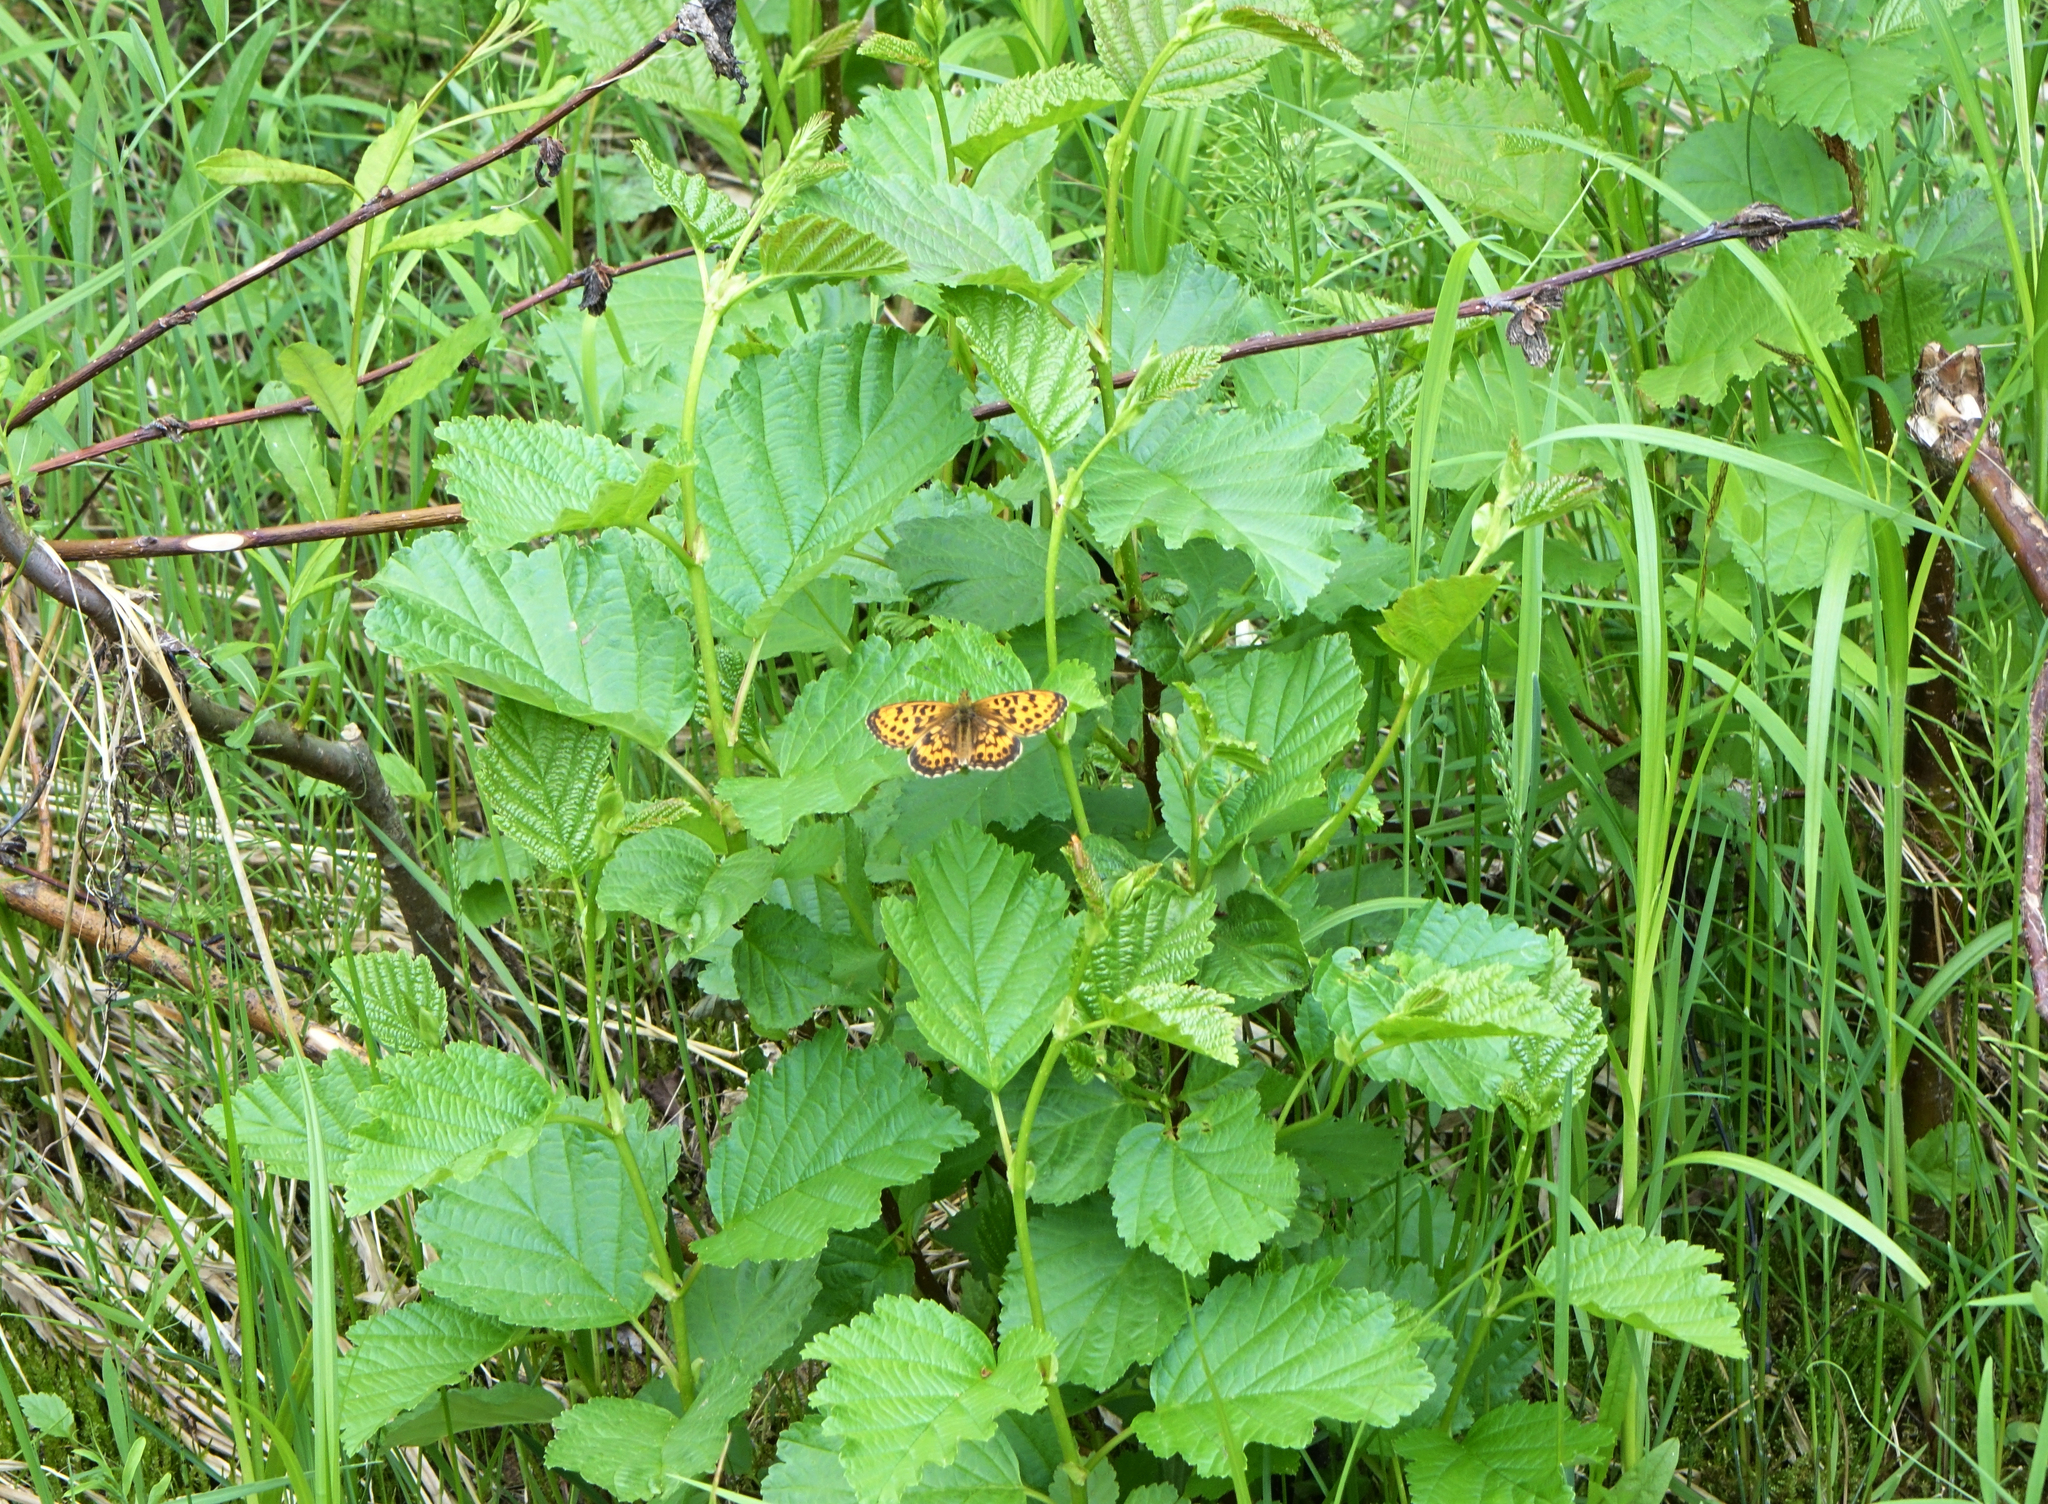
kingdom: Animalia
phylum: Arthropoda
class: Insecta
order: Lepidoptera
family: Nymphalidae
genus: Boloria
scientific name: Boloria thore
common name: Thor's fritillary
